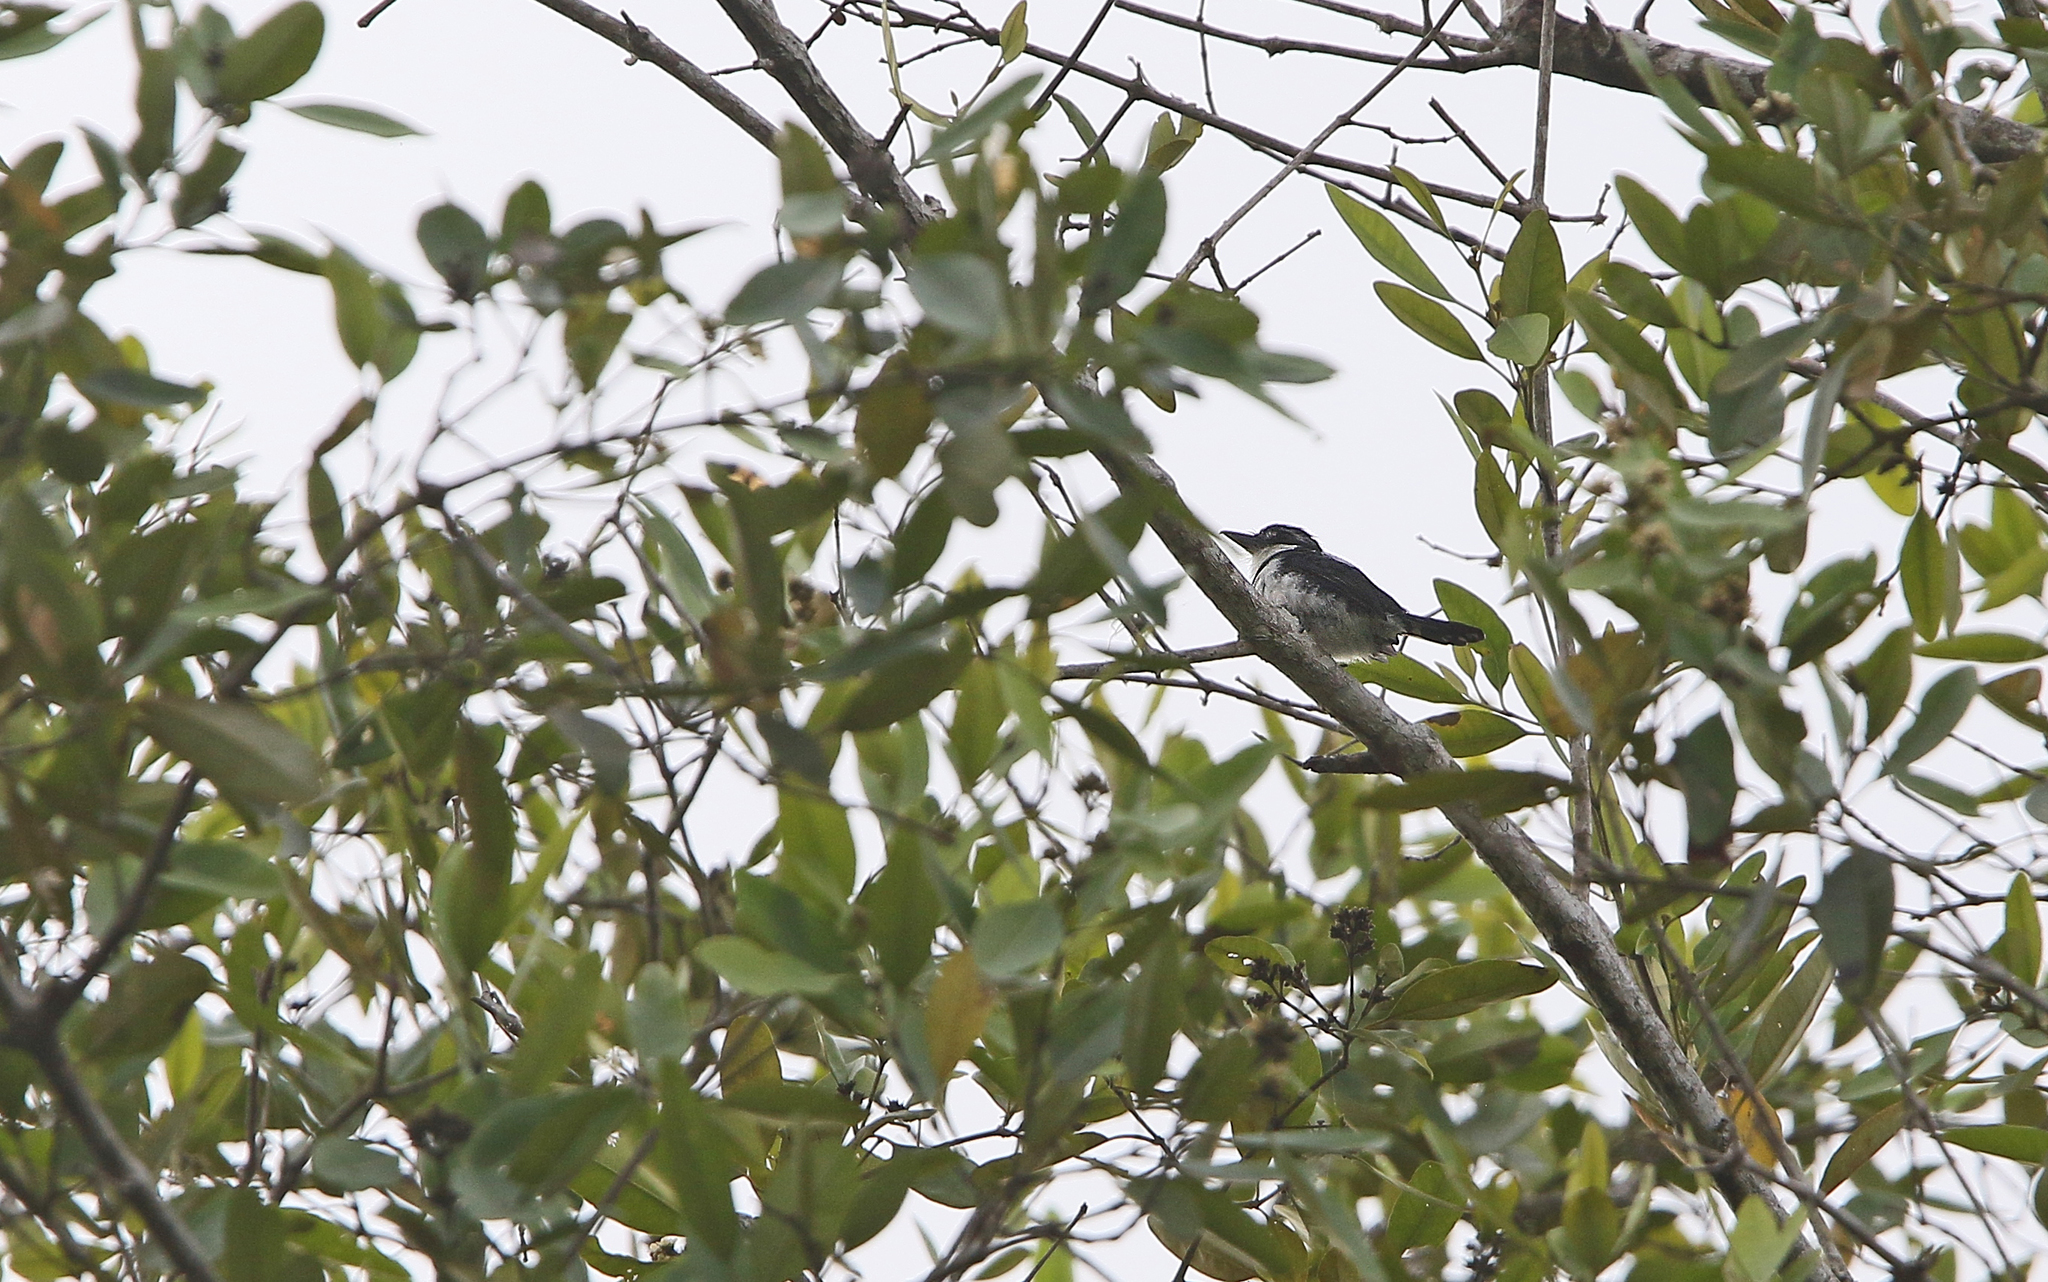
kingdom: Animalia
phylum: Chordata
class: Aves
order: Piciformes
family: Bucconidae
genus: Notharchus
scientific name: Notharchus tectus
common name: Pied puffbird
